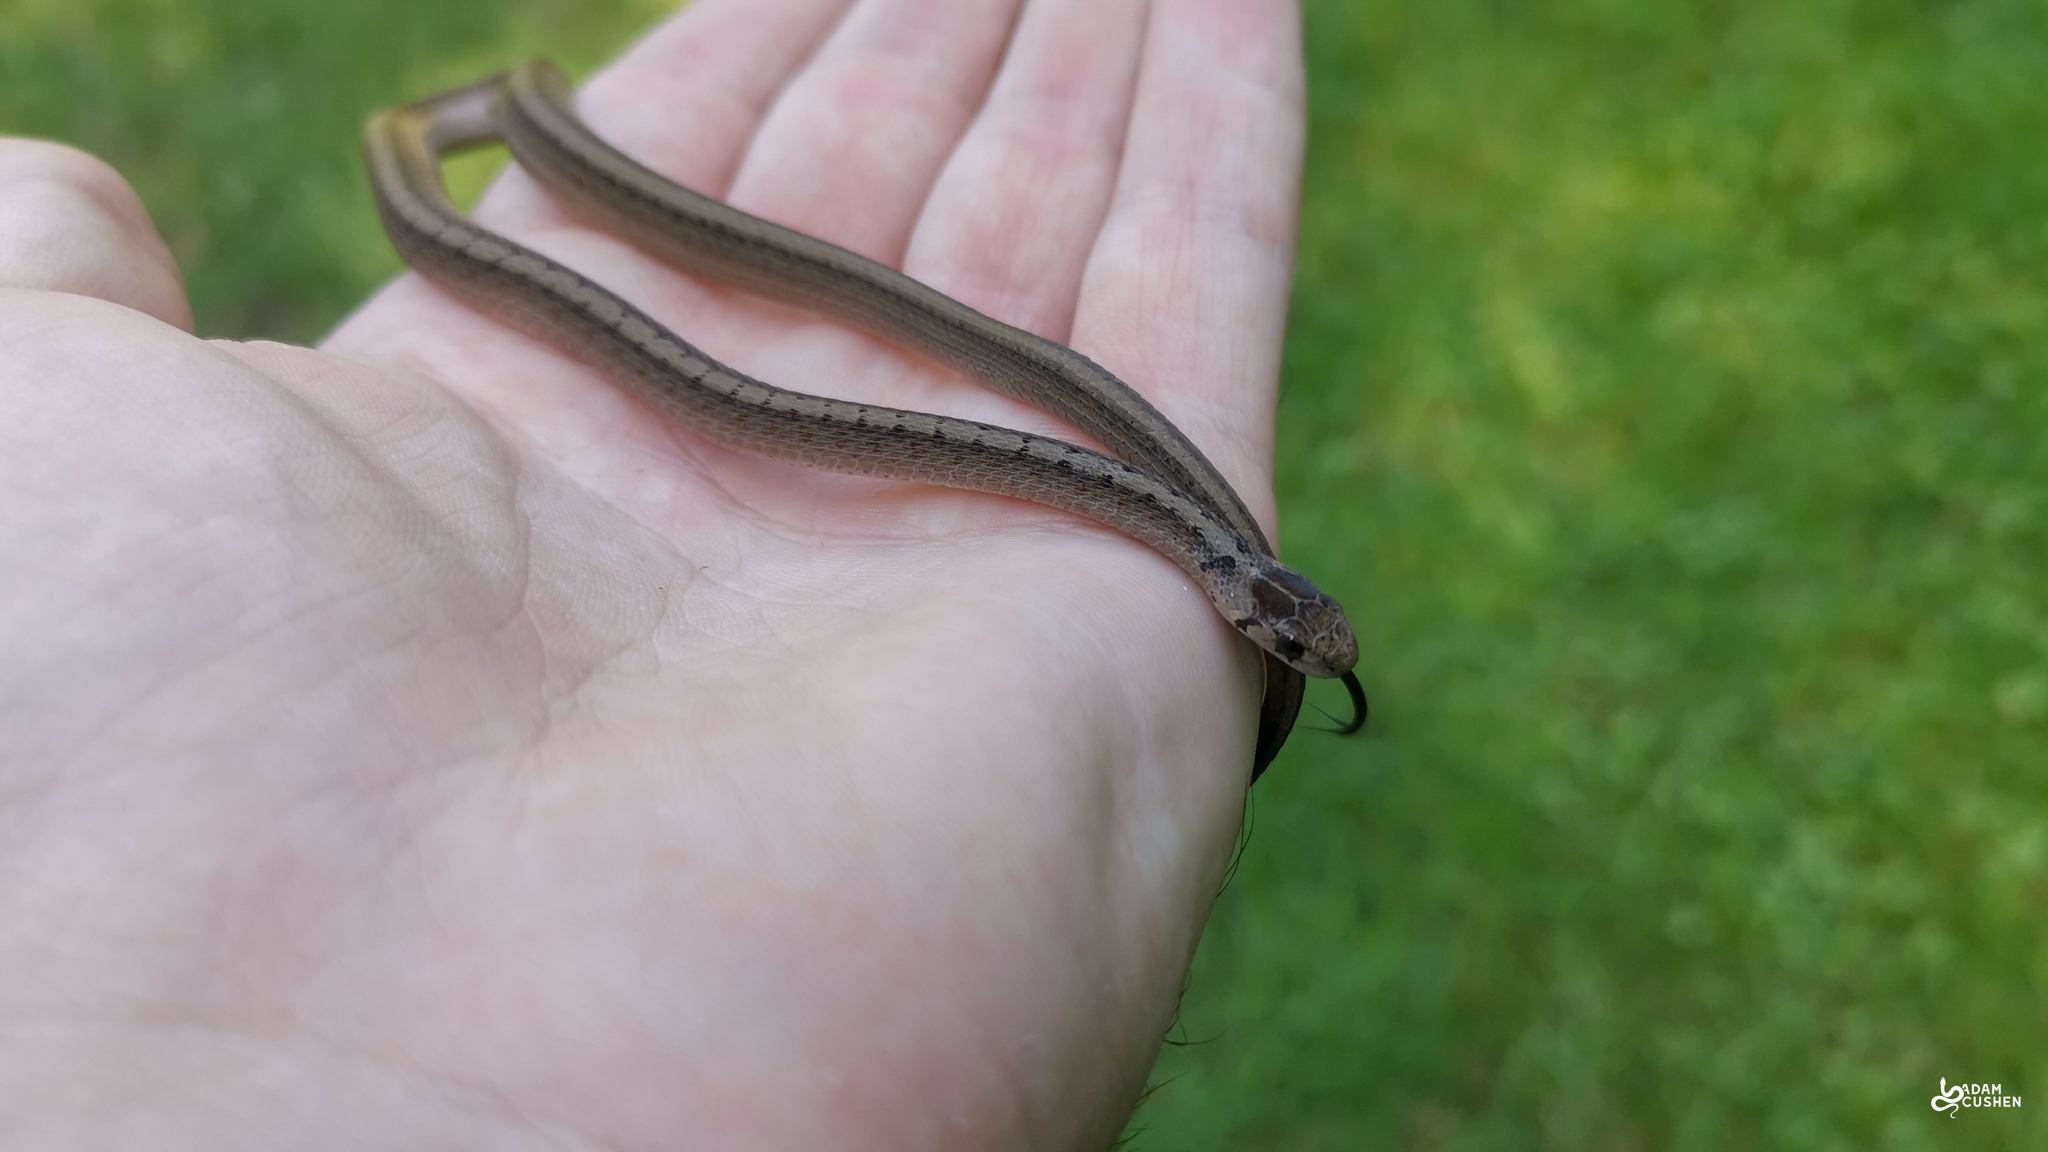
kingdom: Animalia
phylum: Chordata
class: Squamata
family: Colubridae
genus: Storeria
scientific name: Storeria dekayi
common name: (dekay’s) brown snake
